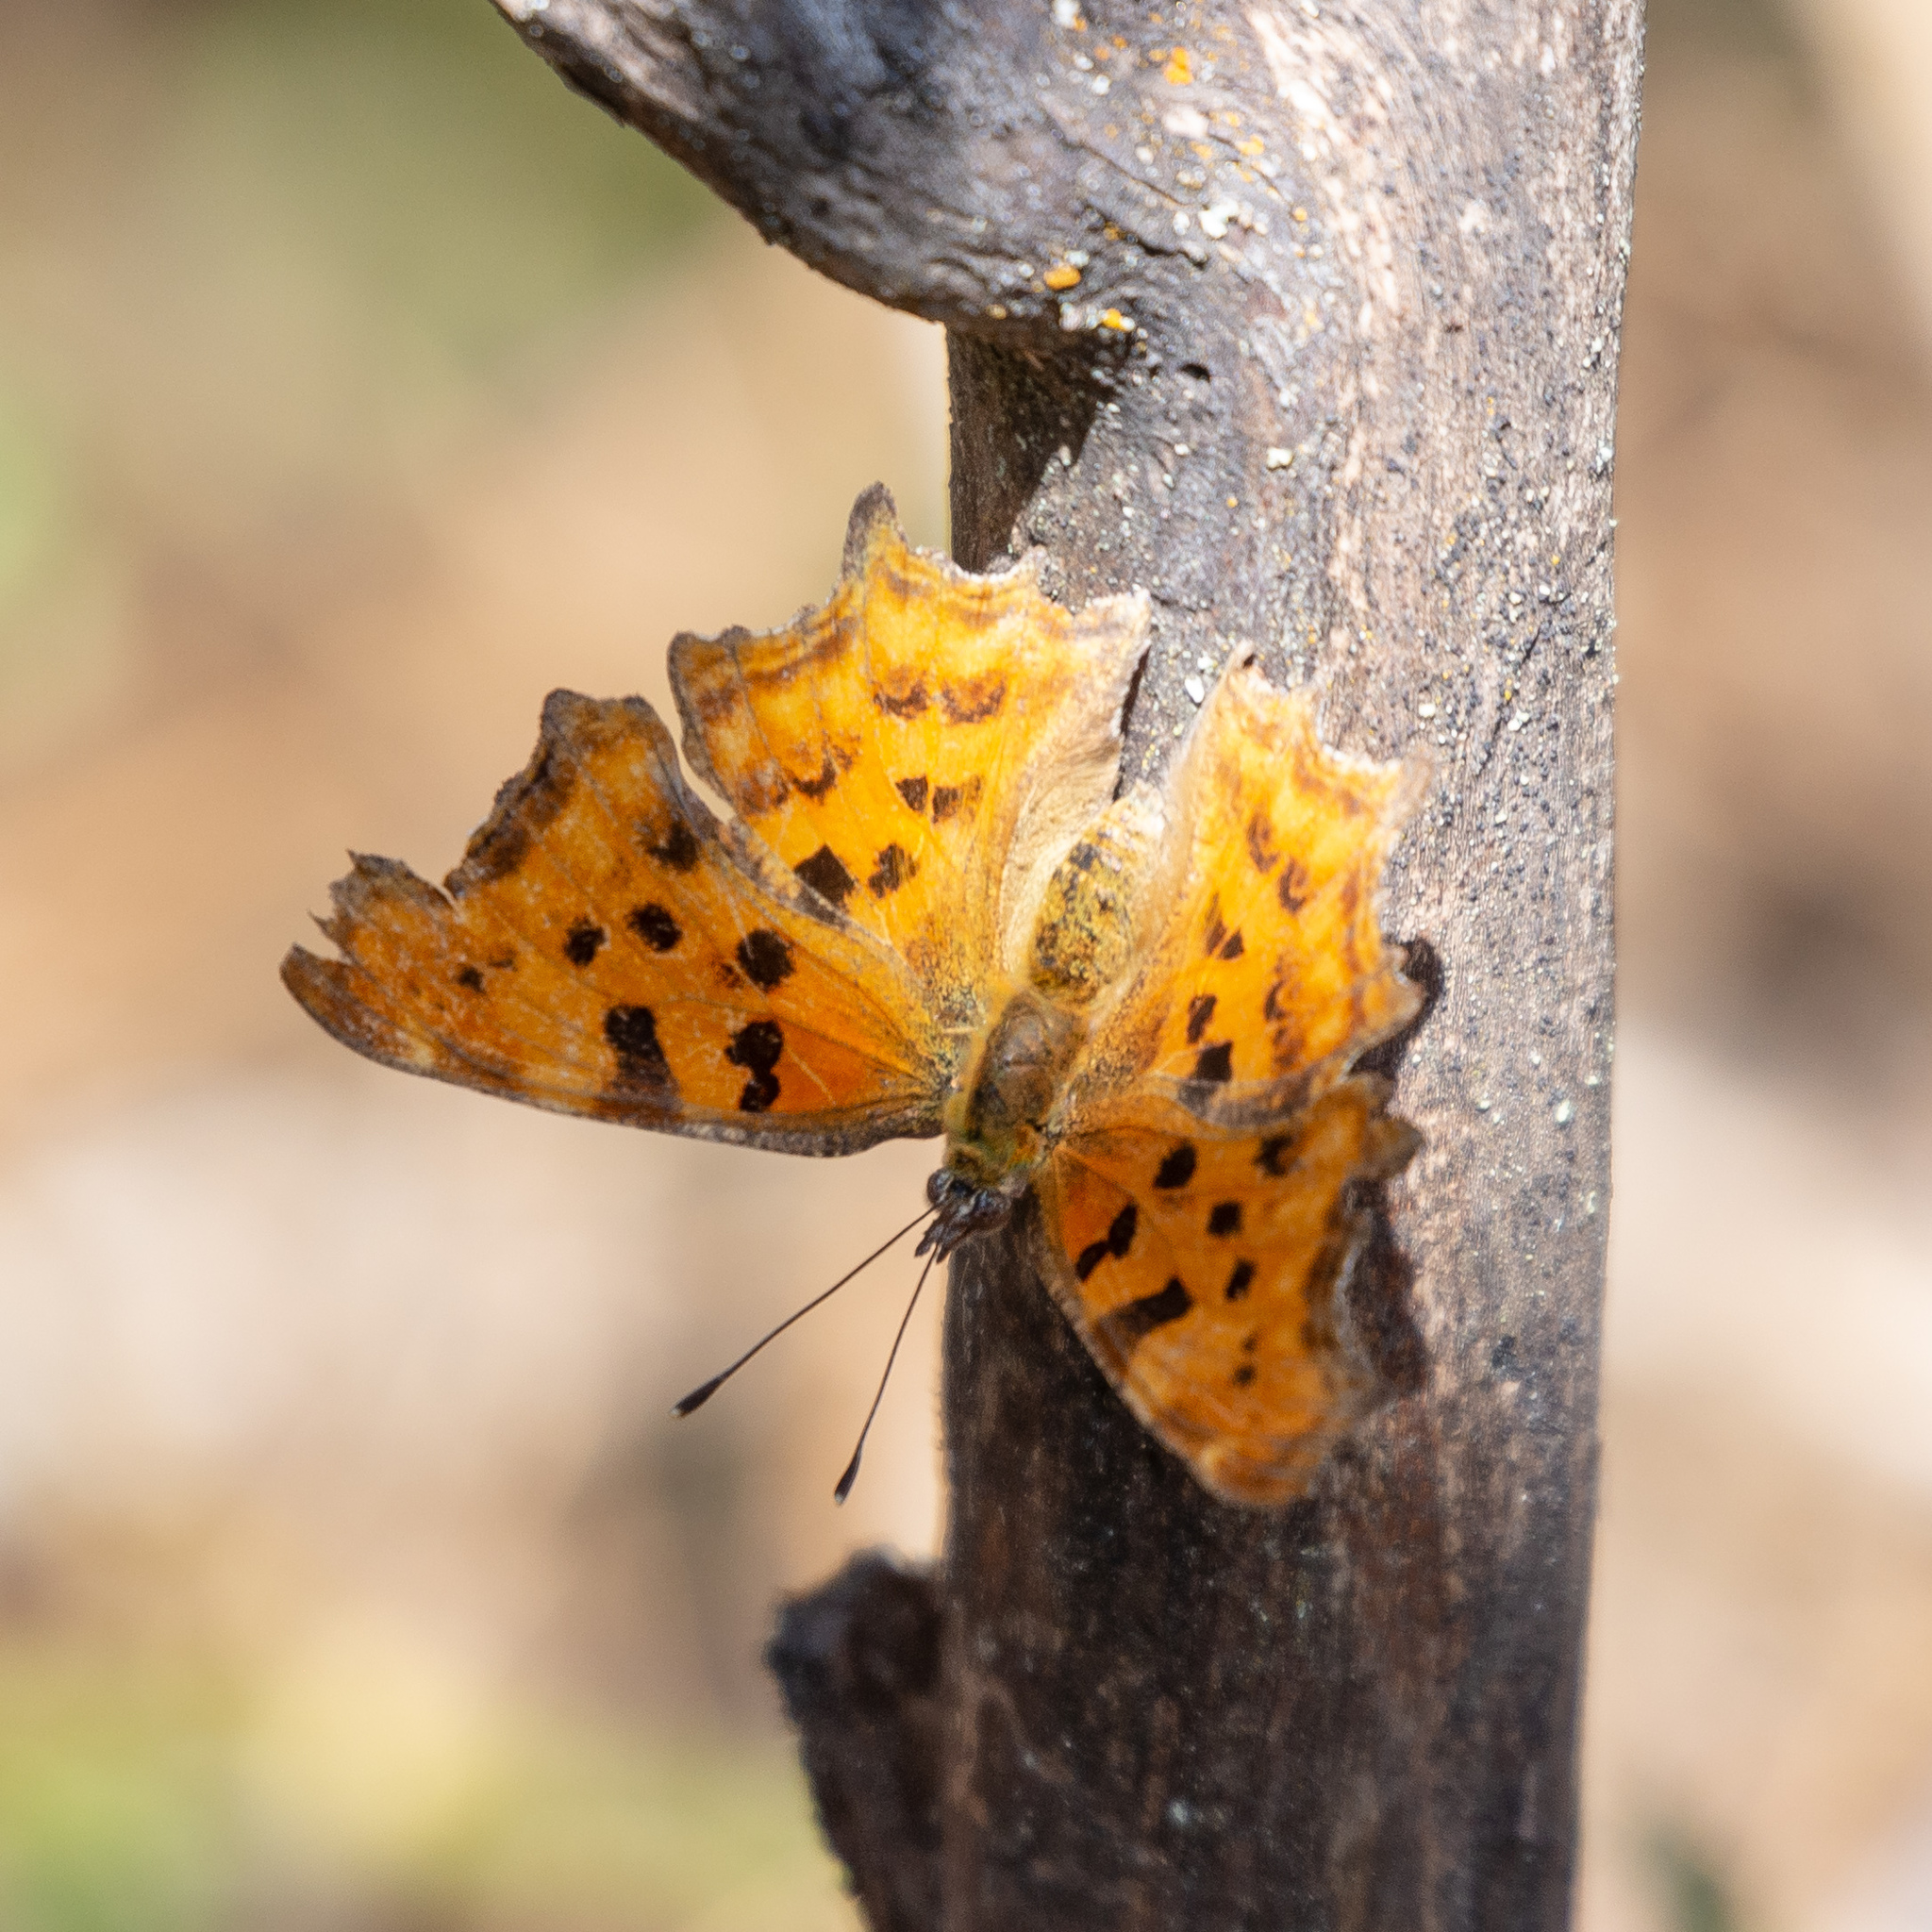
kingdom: Animalia
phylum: Arthropoda
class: Insecta
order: Lepidoptera
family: Nymphalidae
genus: Polygonia
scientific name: Polygonia c-album
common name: Comma
